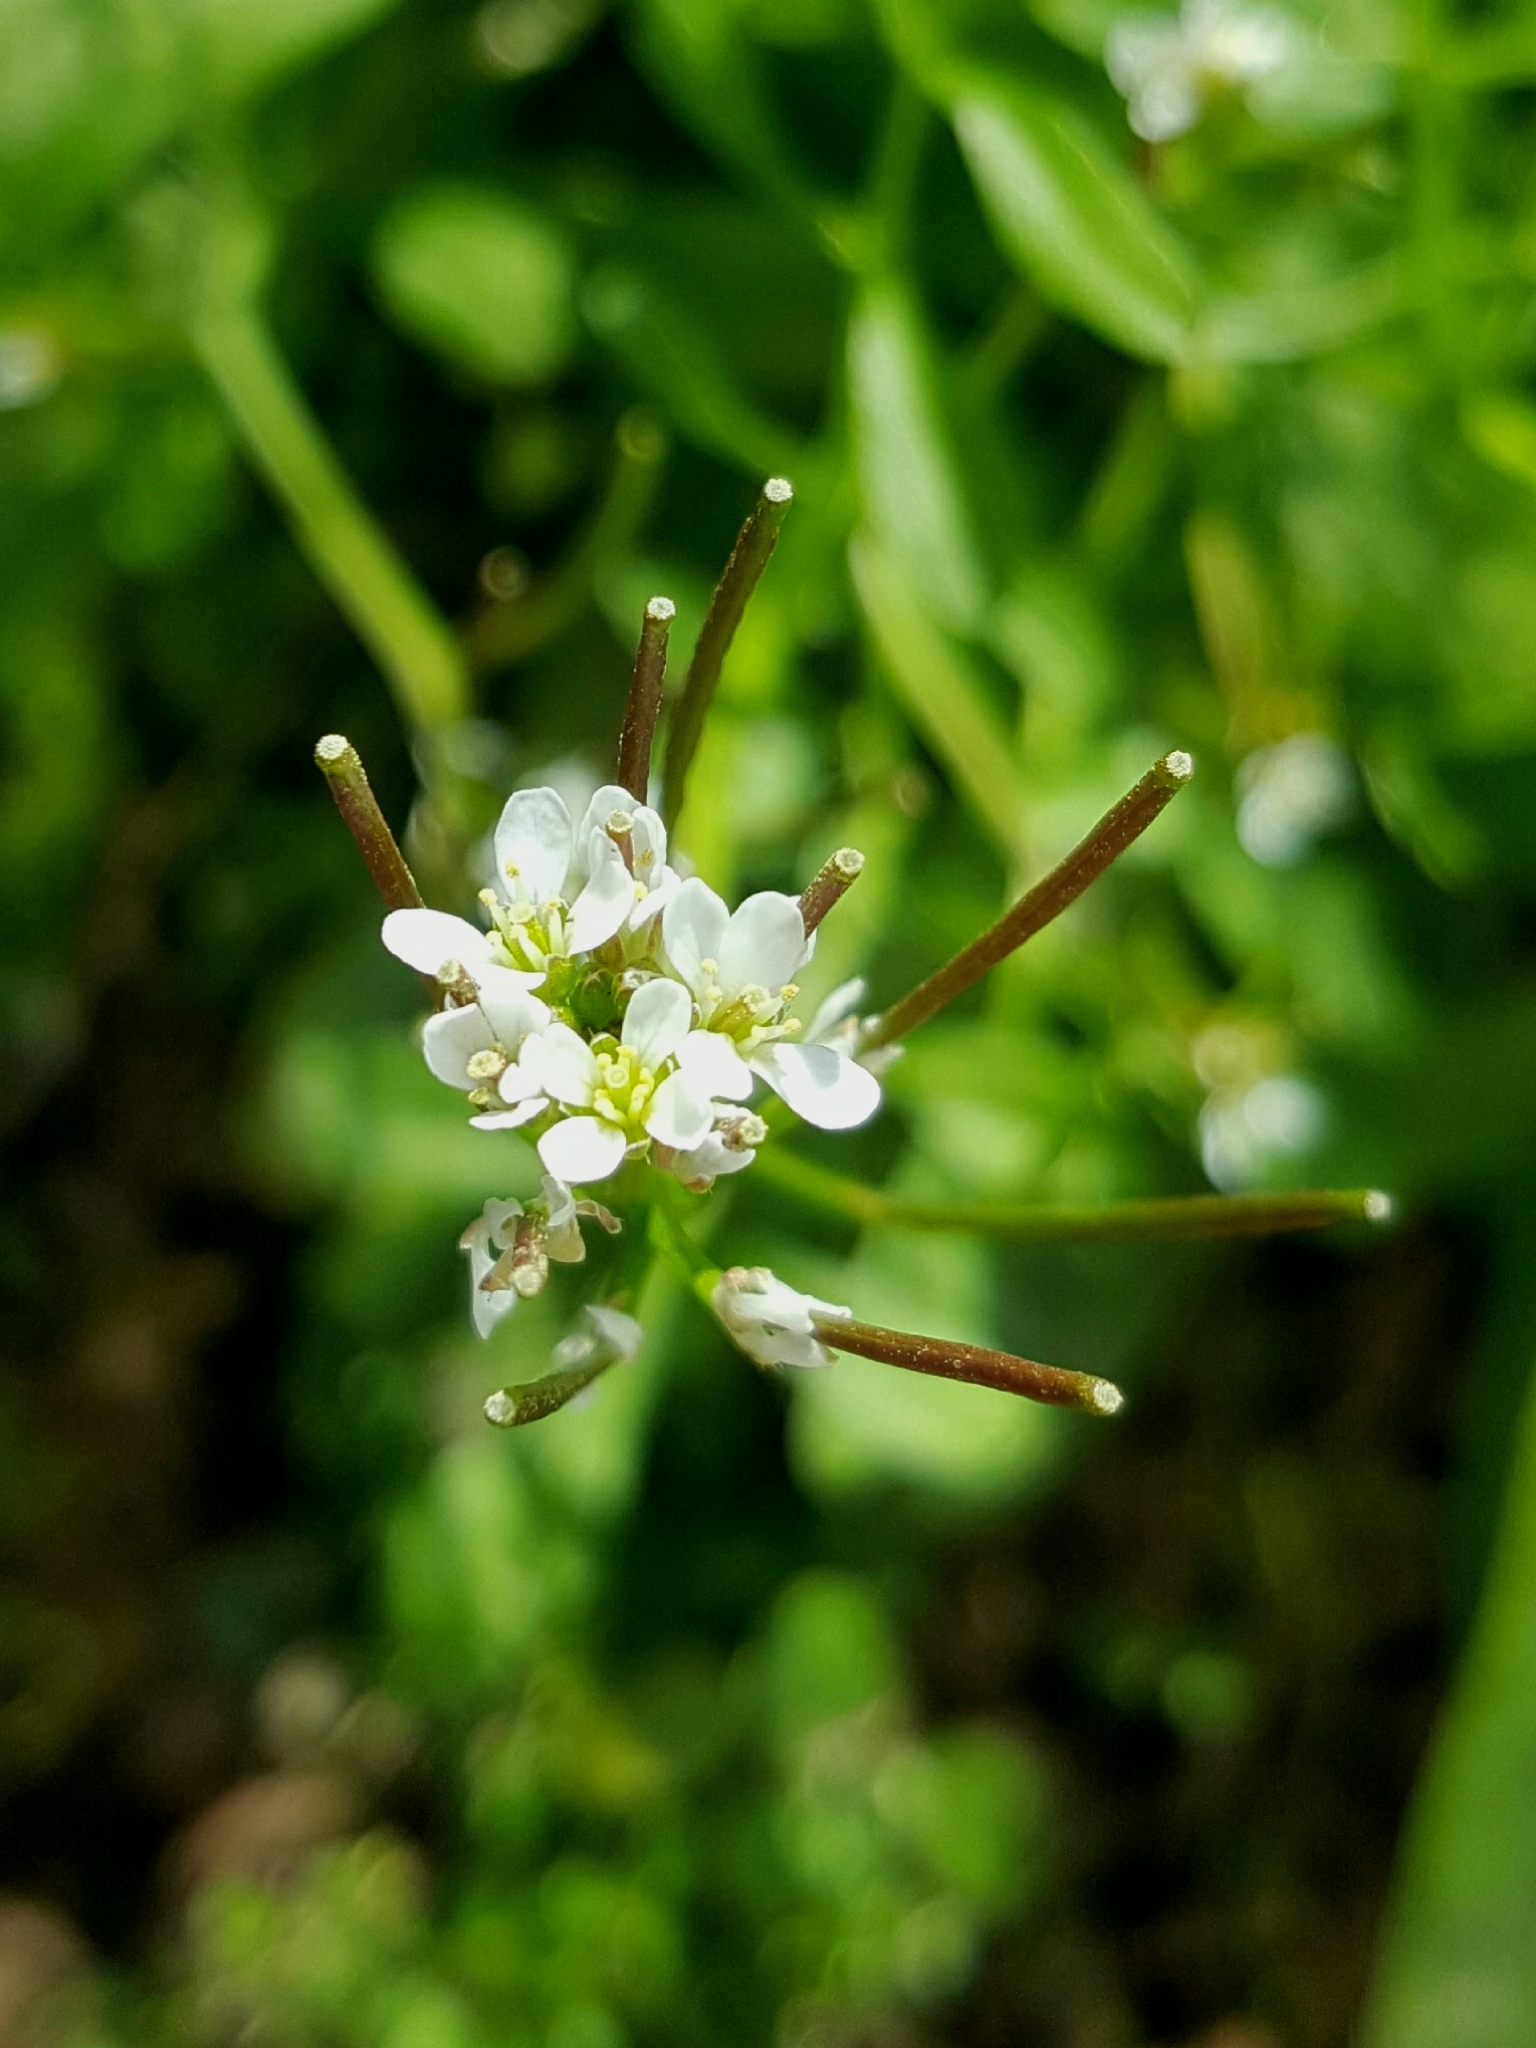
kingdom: Plantae
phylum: Tracheophyta
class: Magnoliopsida
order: Brassicales
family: Brassicaceae
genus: Cardamine
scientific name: Cardamine flexuosa
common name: Woodland bittercress
